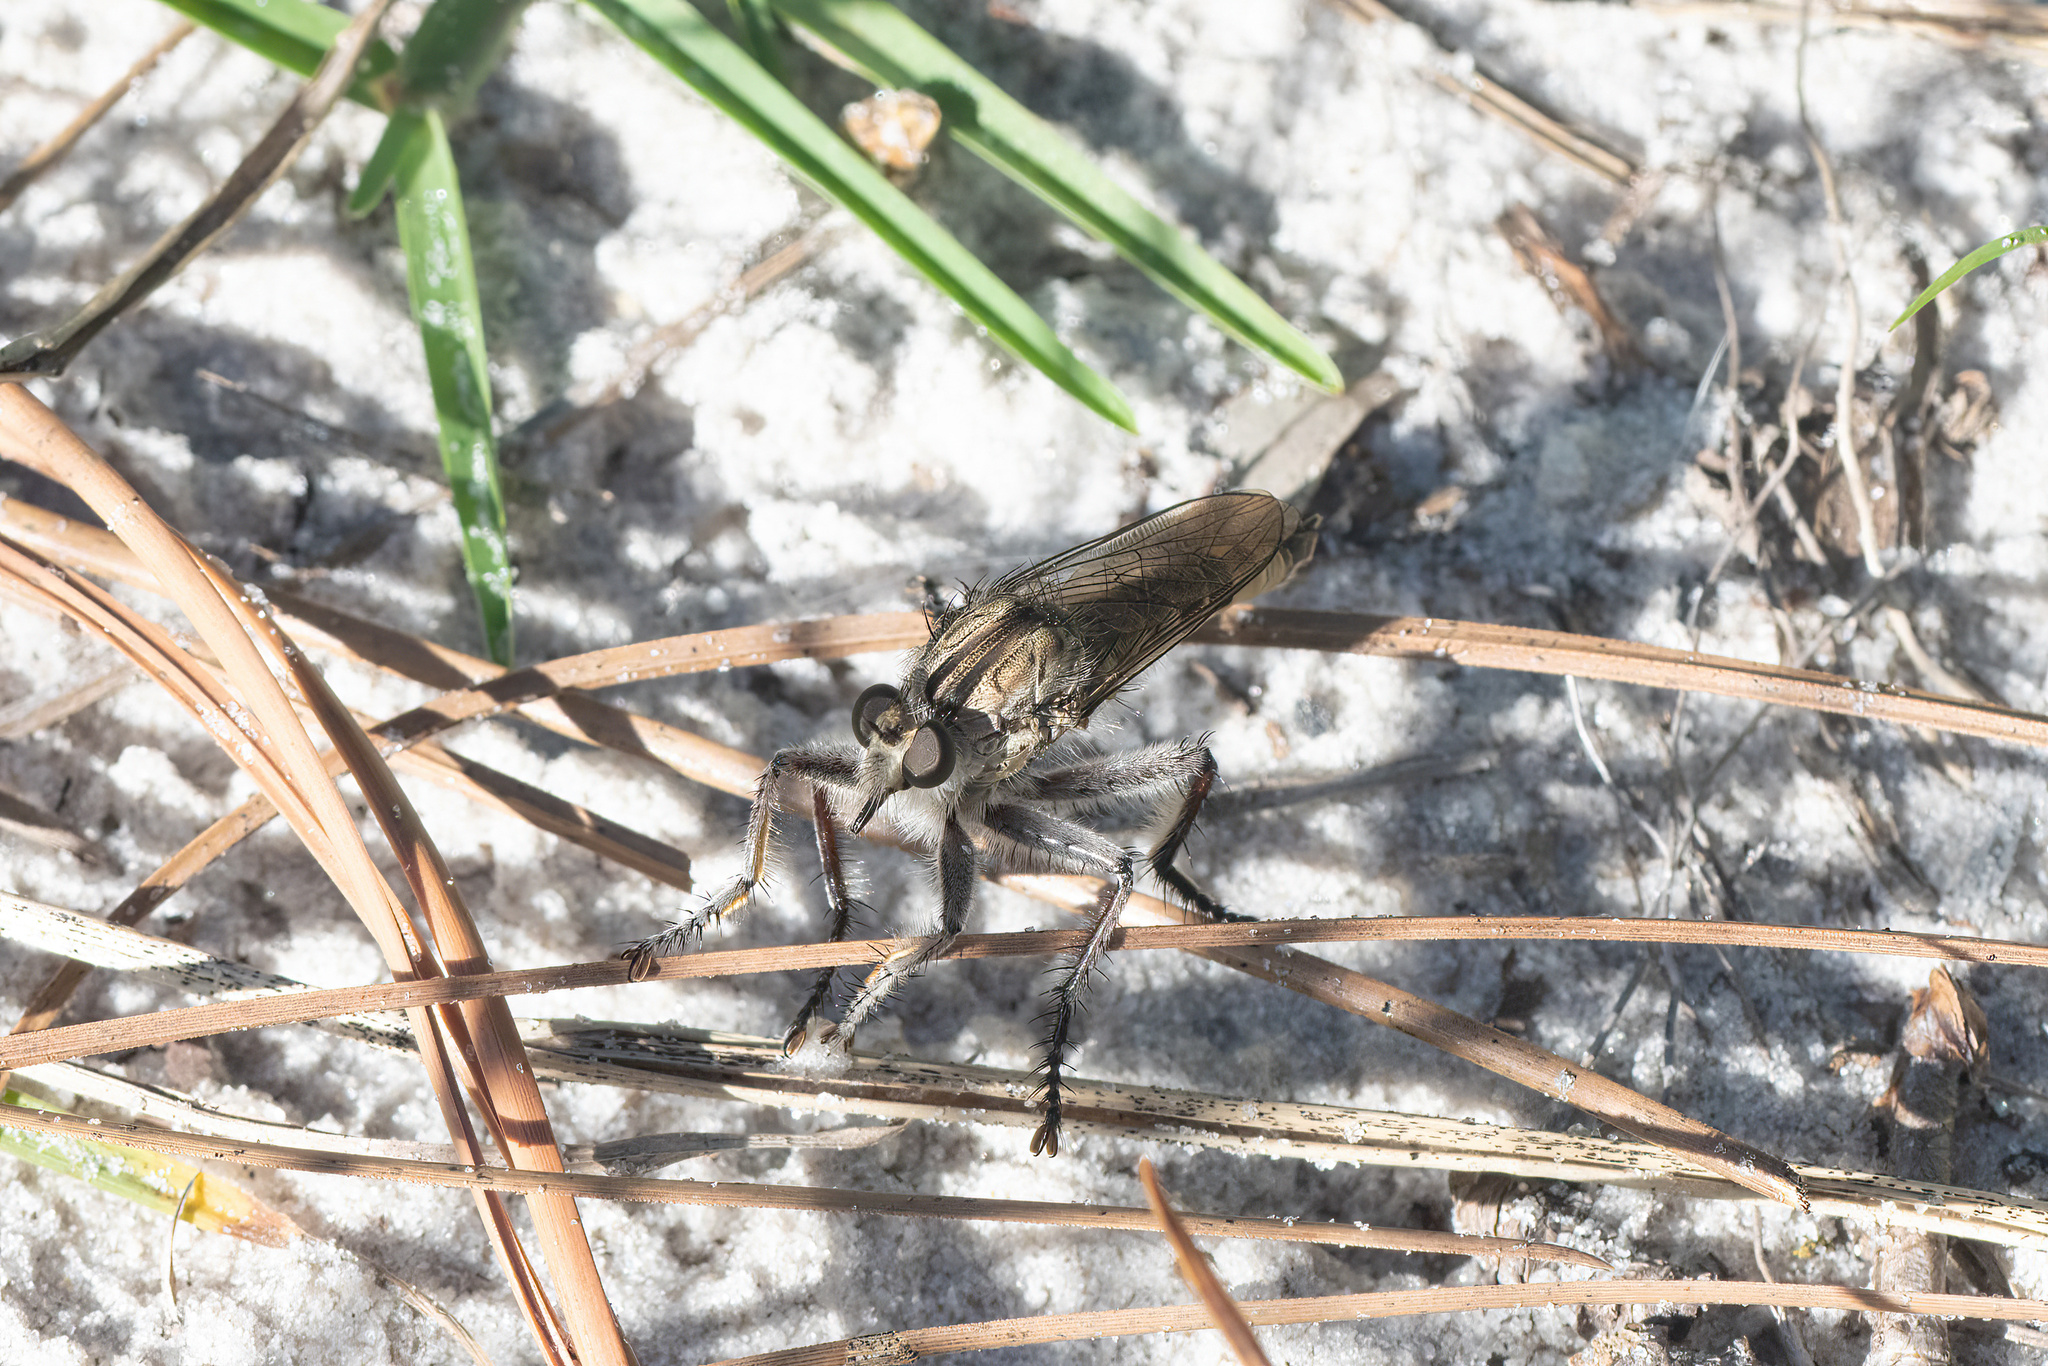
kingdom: Animalia
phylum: Arthropoda
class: Insecta
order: Diptera
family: Asilidae
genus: Triorla
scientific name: Triorla interrupta
